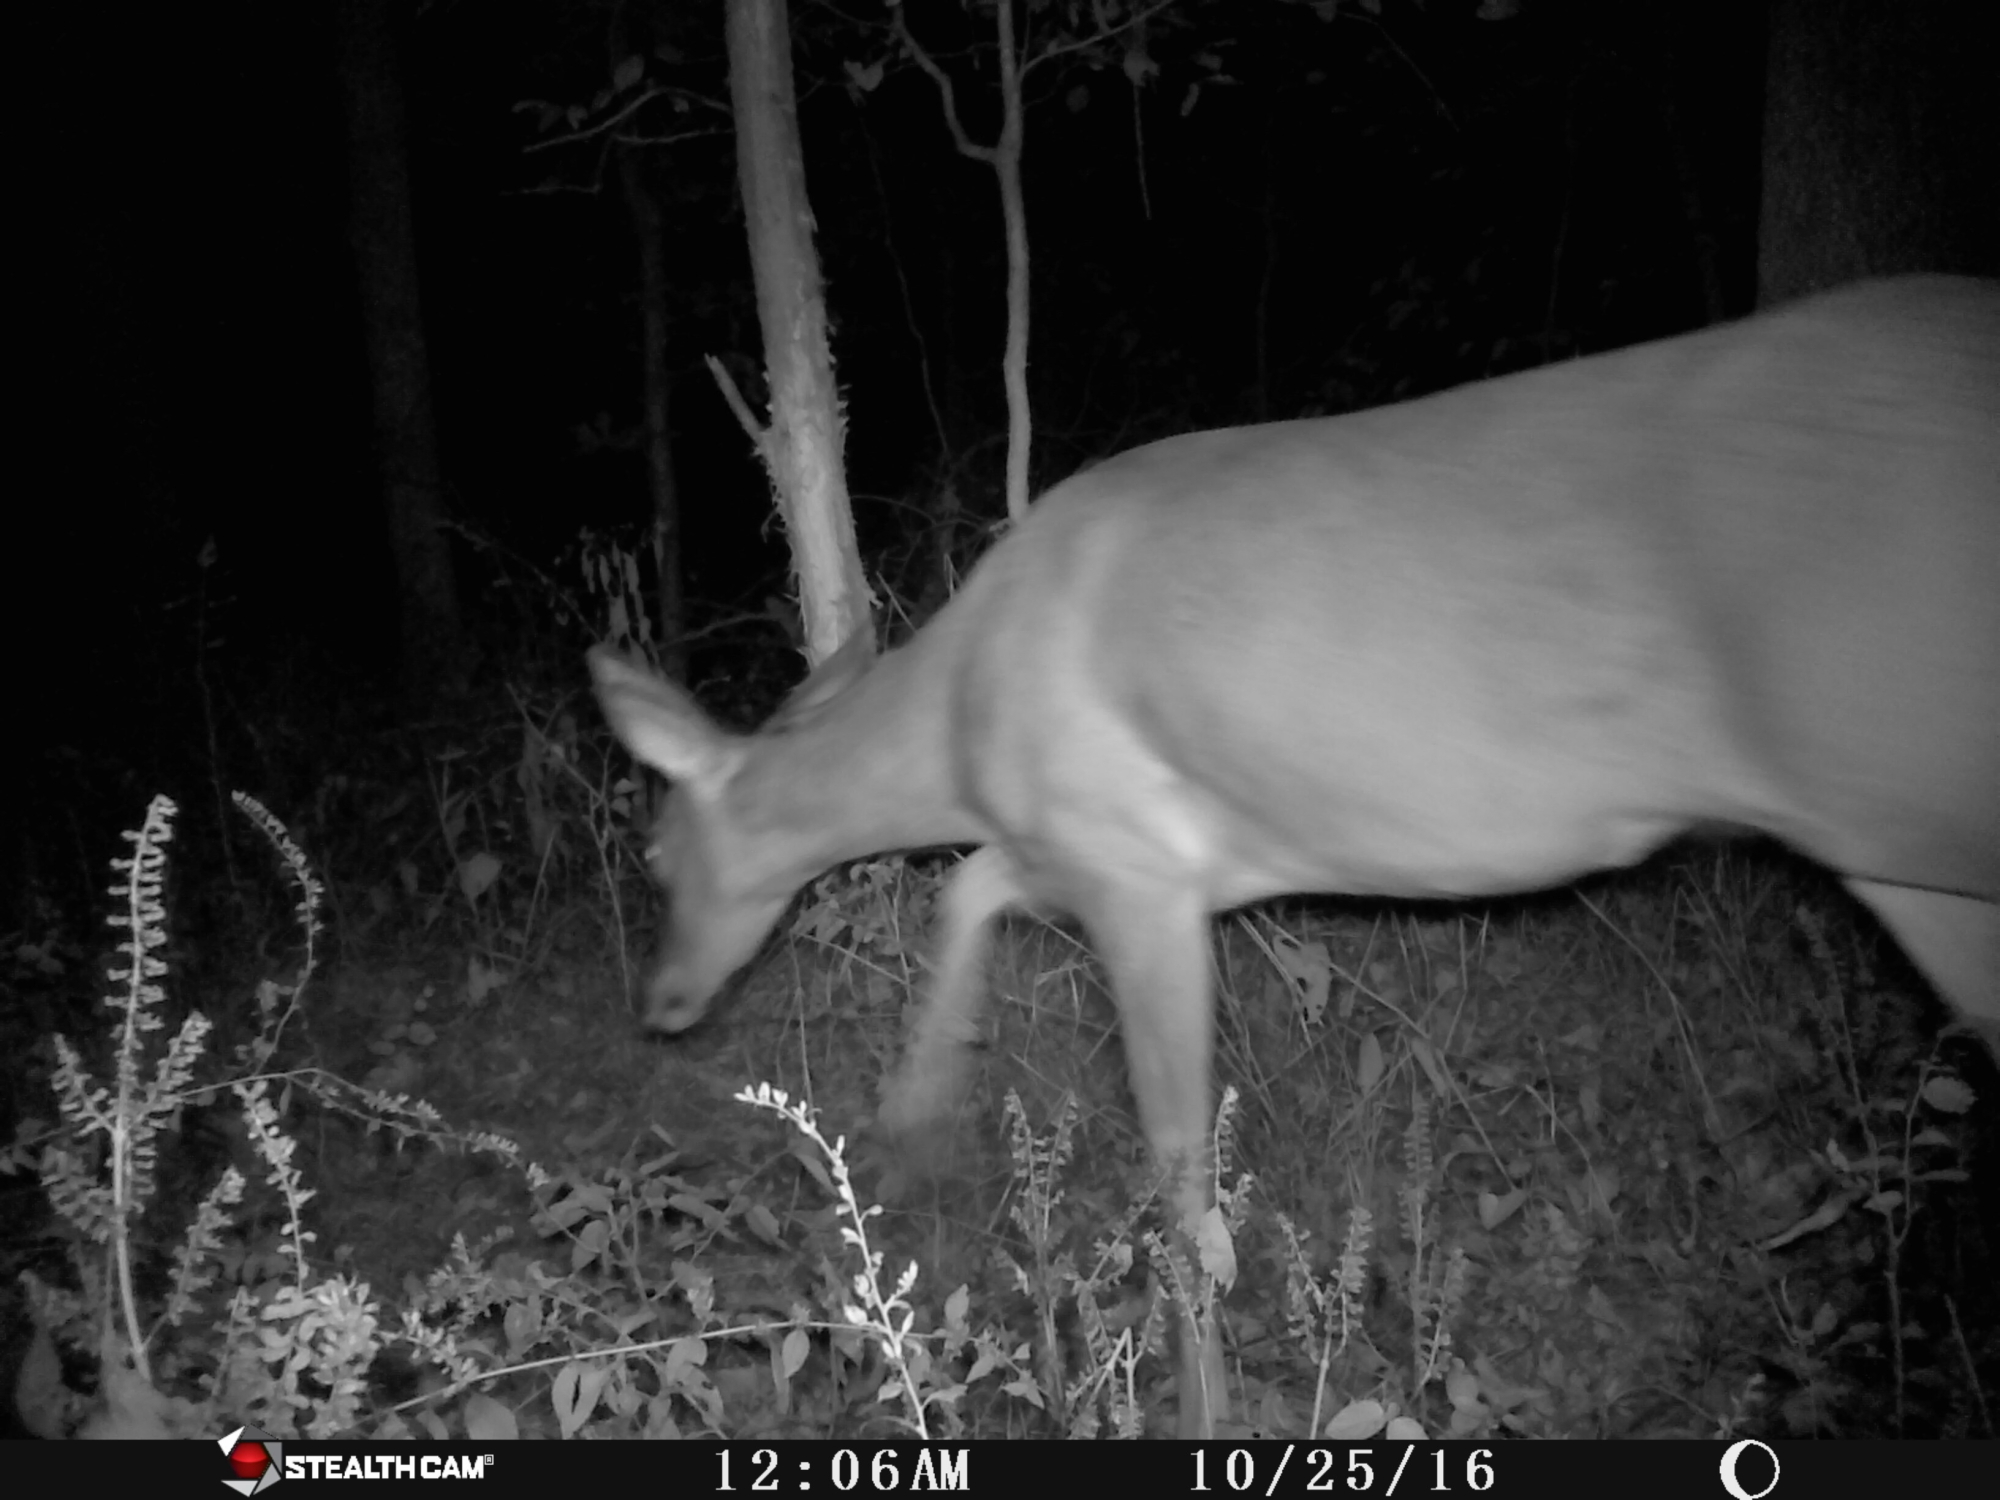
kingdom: Animalia
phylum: Chordata
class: Mammalia
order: Artiodactyla
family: Cervidae
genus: Odocoileus
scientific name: Odocoileus virginianus
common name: White-tailed deer
